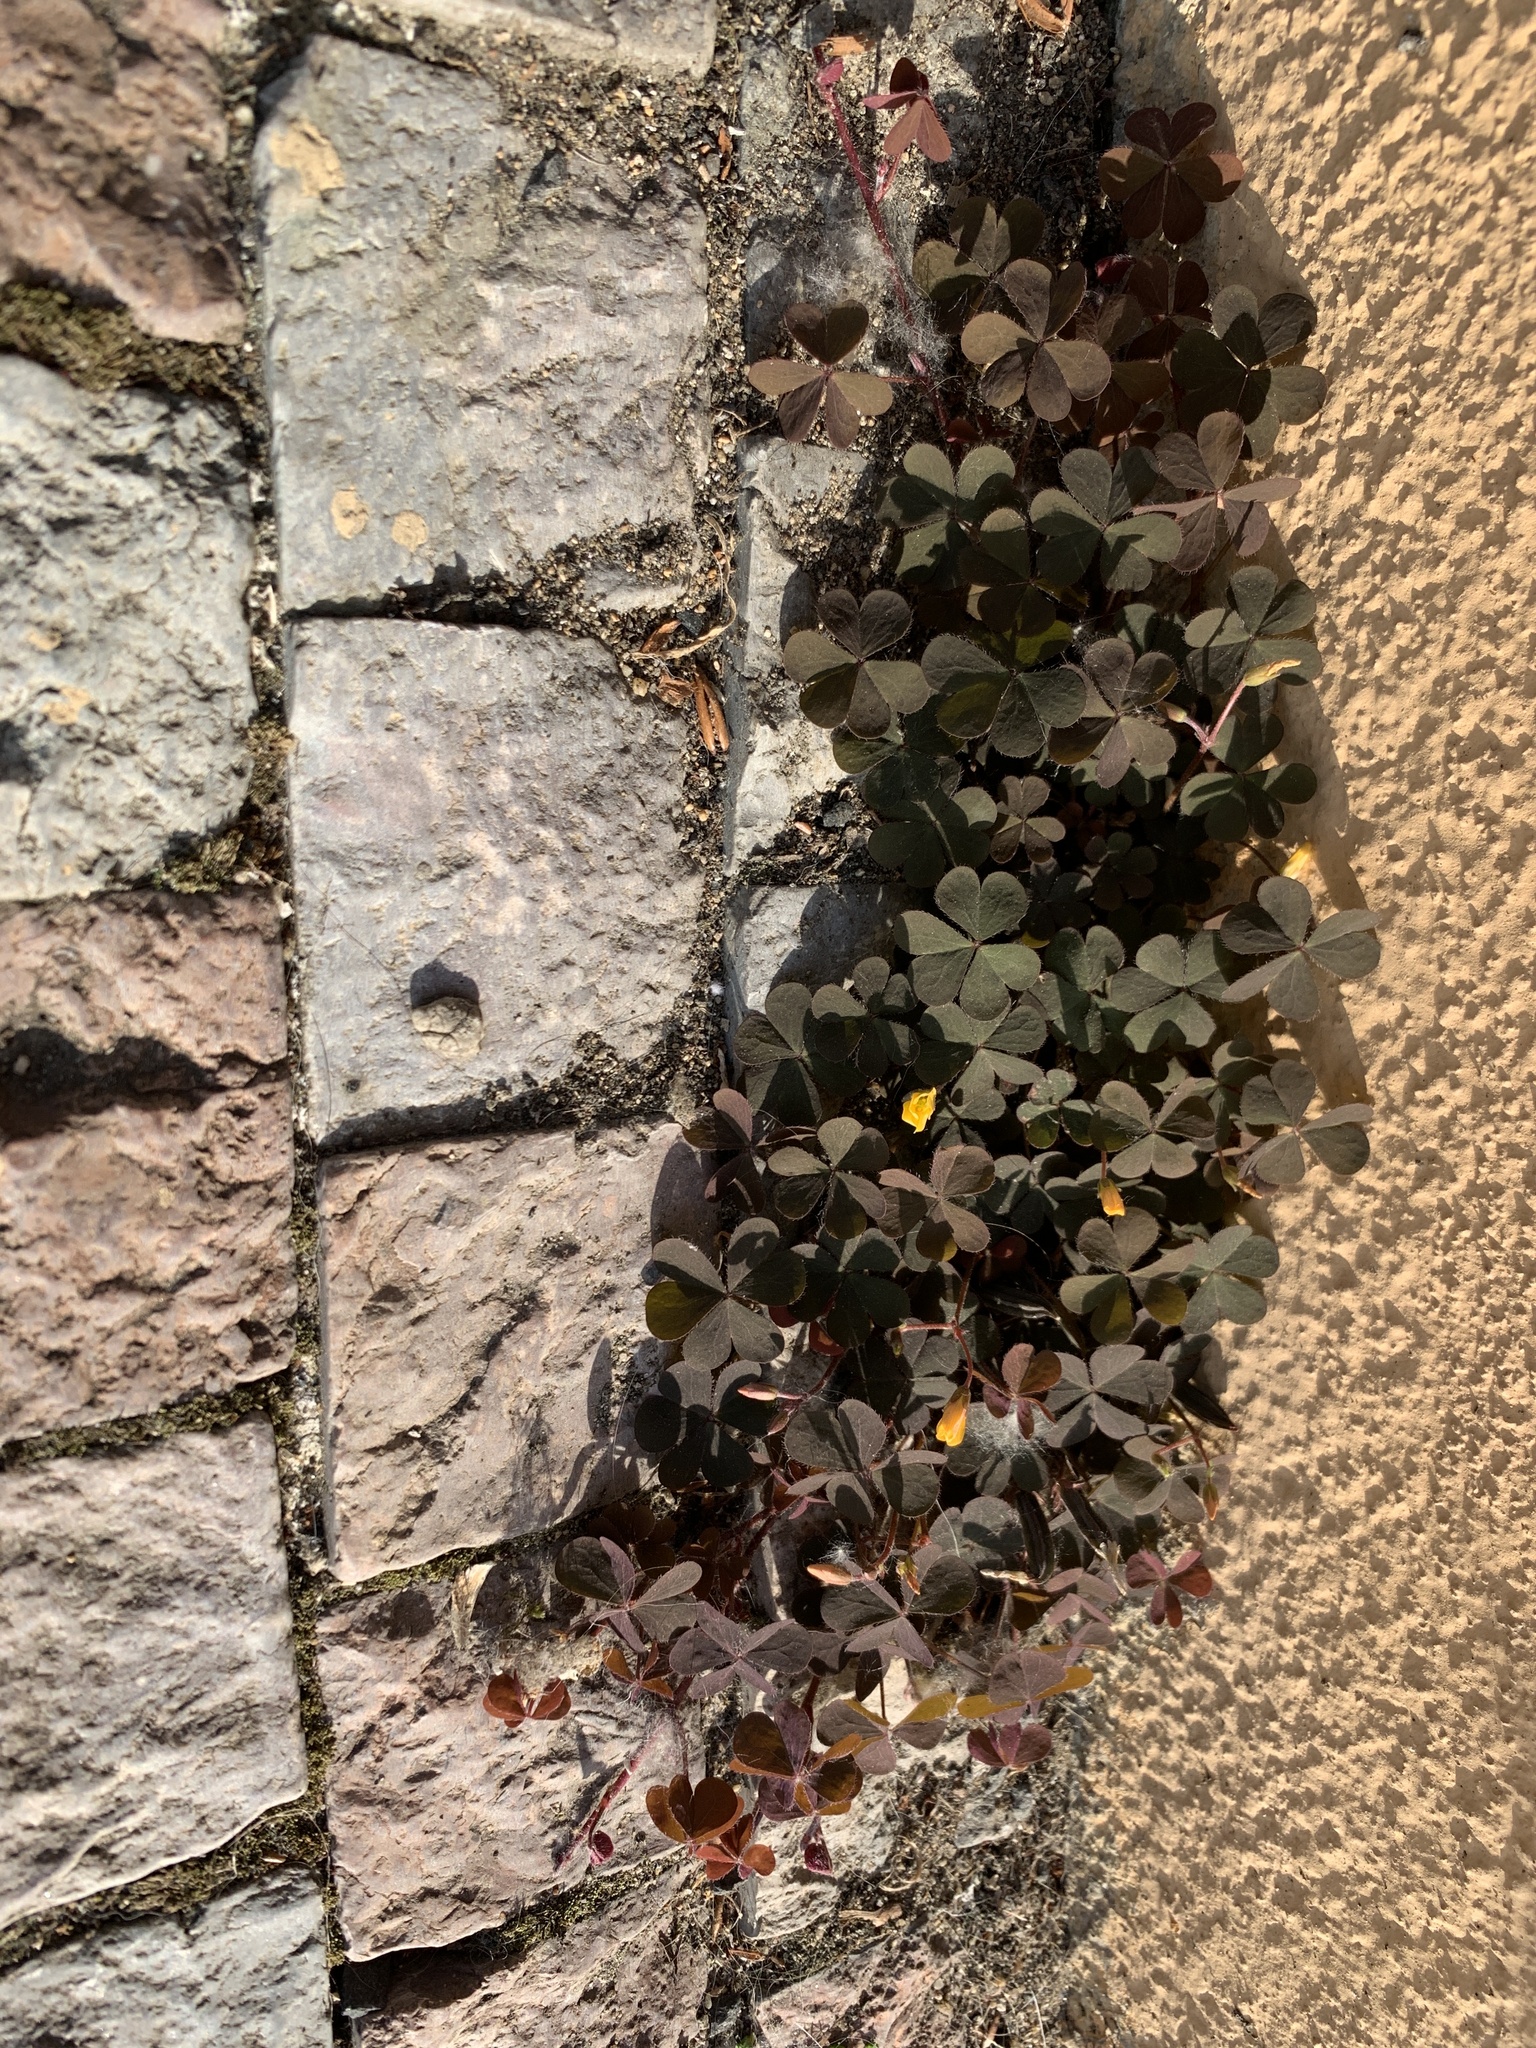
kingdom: Plantae
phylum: Tracheophyta
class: Magnoliopsida
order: Oxalidales
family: Oxalidaceae
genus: Oxalis
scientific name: Oxalis corniculata
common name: Procumbent yellow-sorrel
